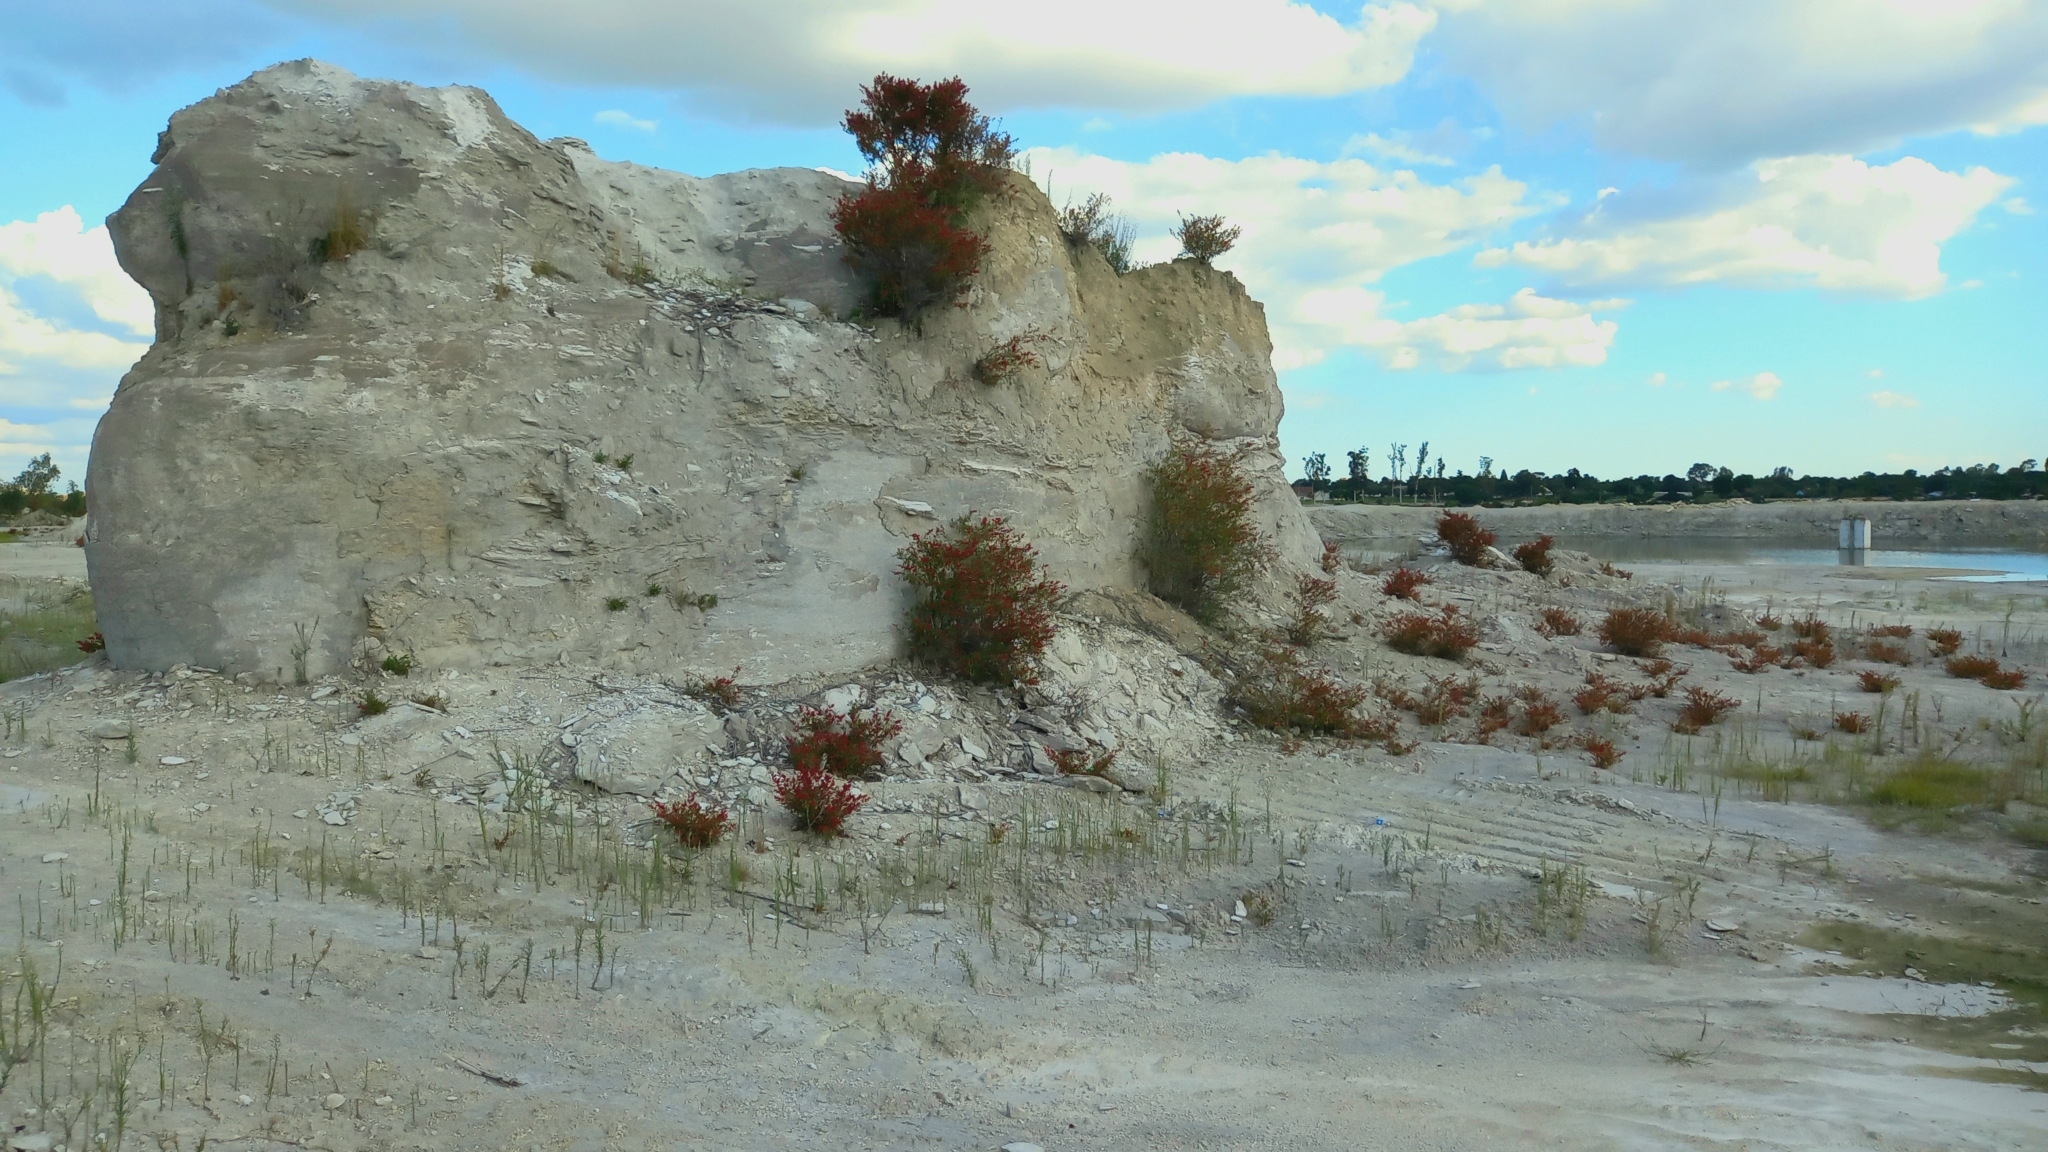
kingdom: Plantae
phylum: Tracheophyta
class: Magnoliopsida
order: Caryophyllales
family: Polygonaceae
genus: Rumex
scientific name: Rumex usambarensis
